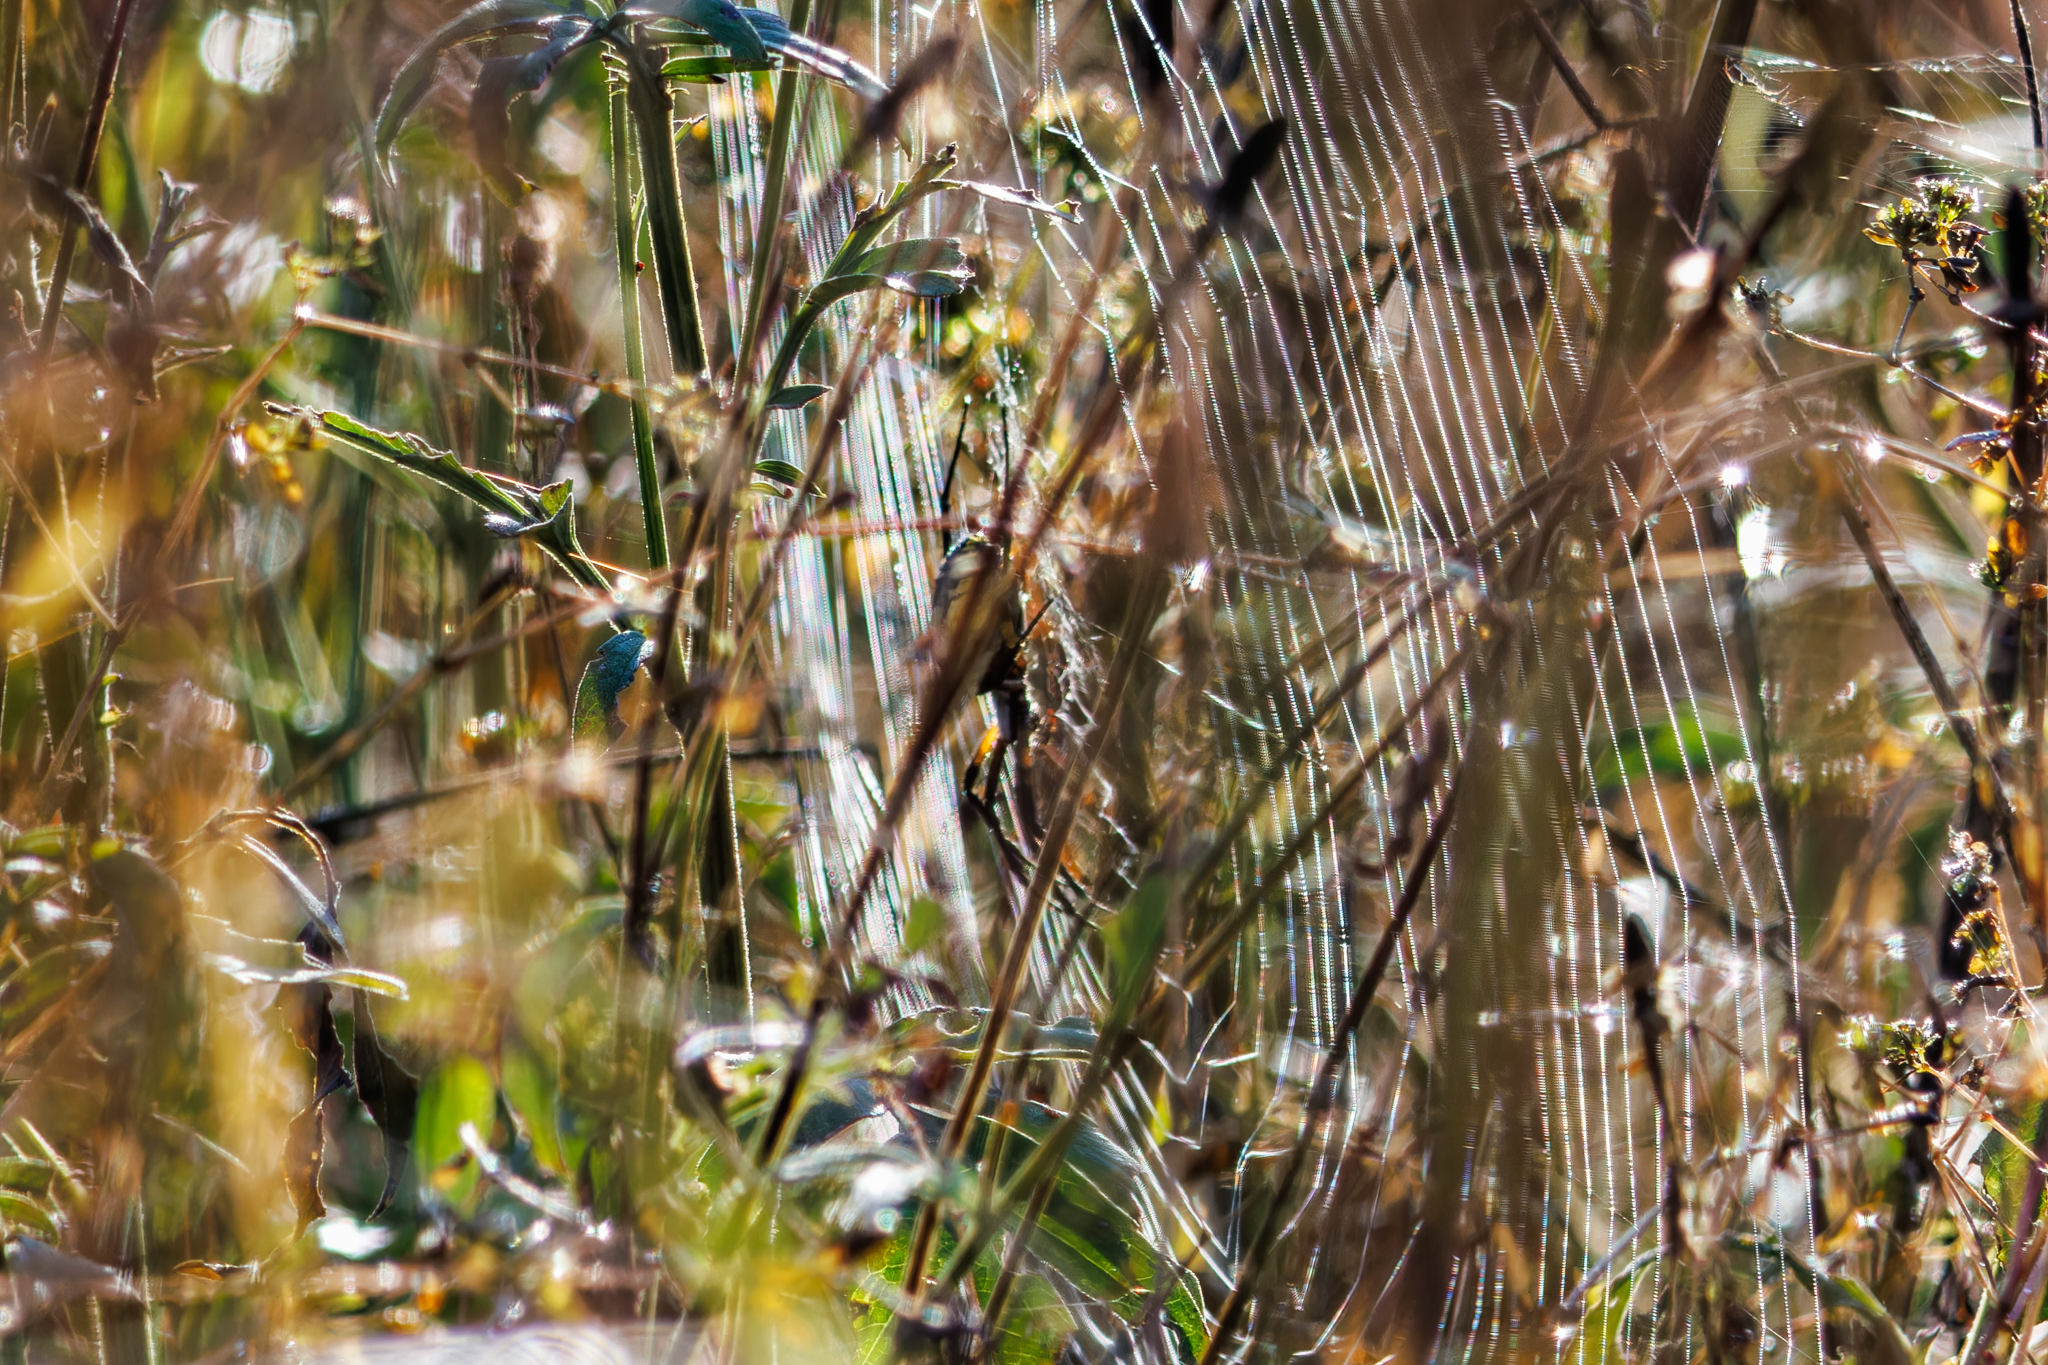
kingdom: Animalia
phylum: Arthropoda
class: Arachnida
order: Araneae
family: Araneidae
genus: Argiope
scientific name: Argiope aurantia
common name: Orb weavers
